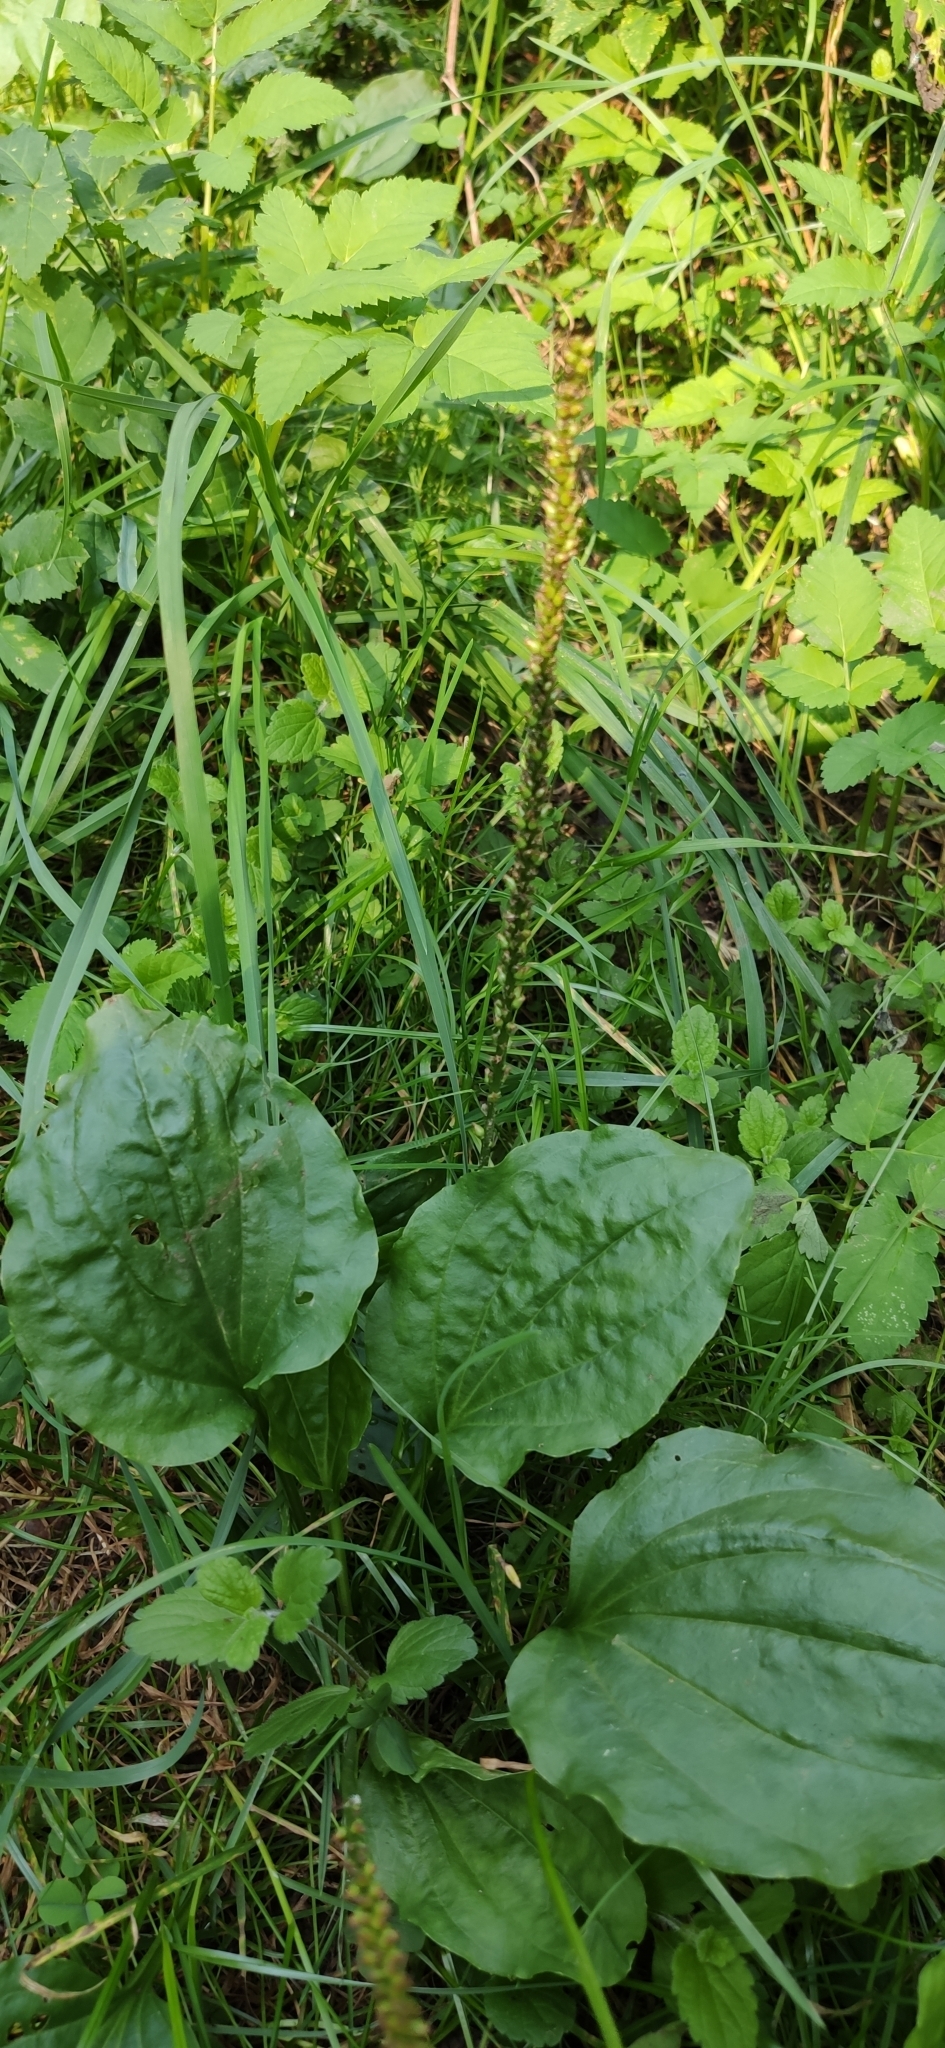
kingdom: Plantae
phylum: Tracheophyta
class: Magnoliopsida
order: Lamiales
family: Plantaginaceae
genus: Plantago
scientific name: Plantago major
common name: Common plantain
